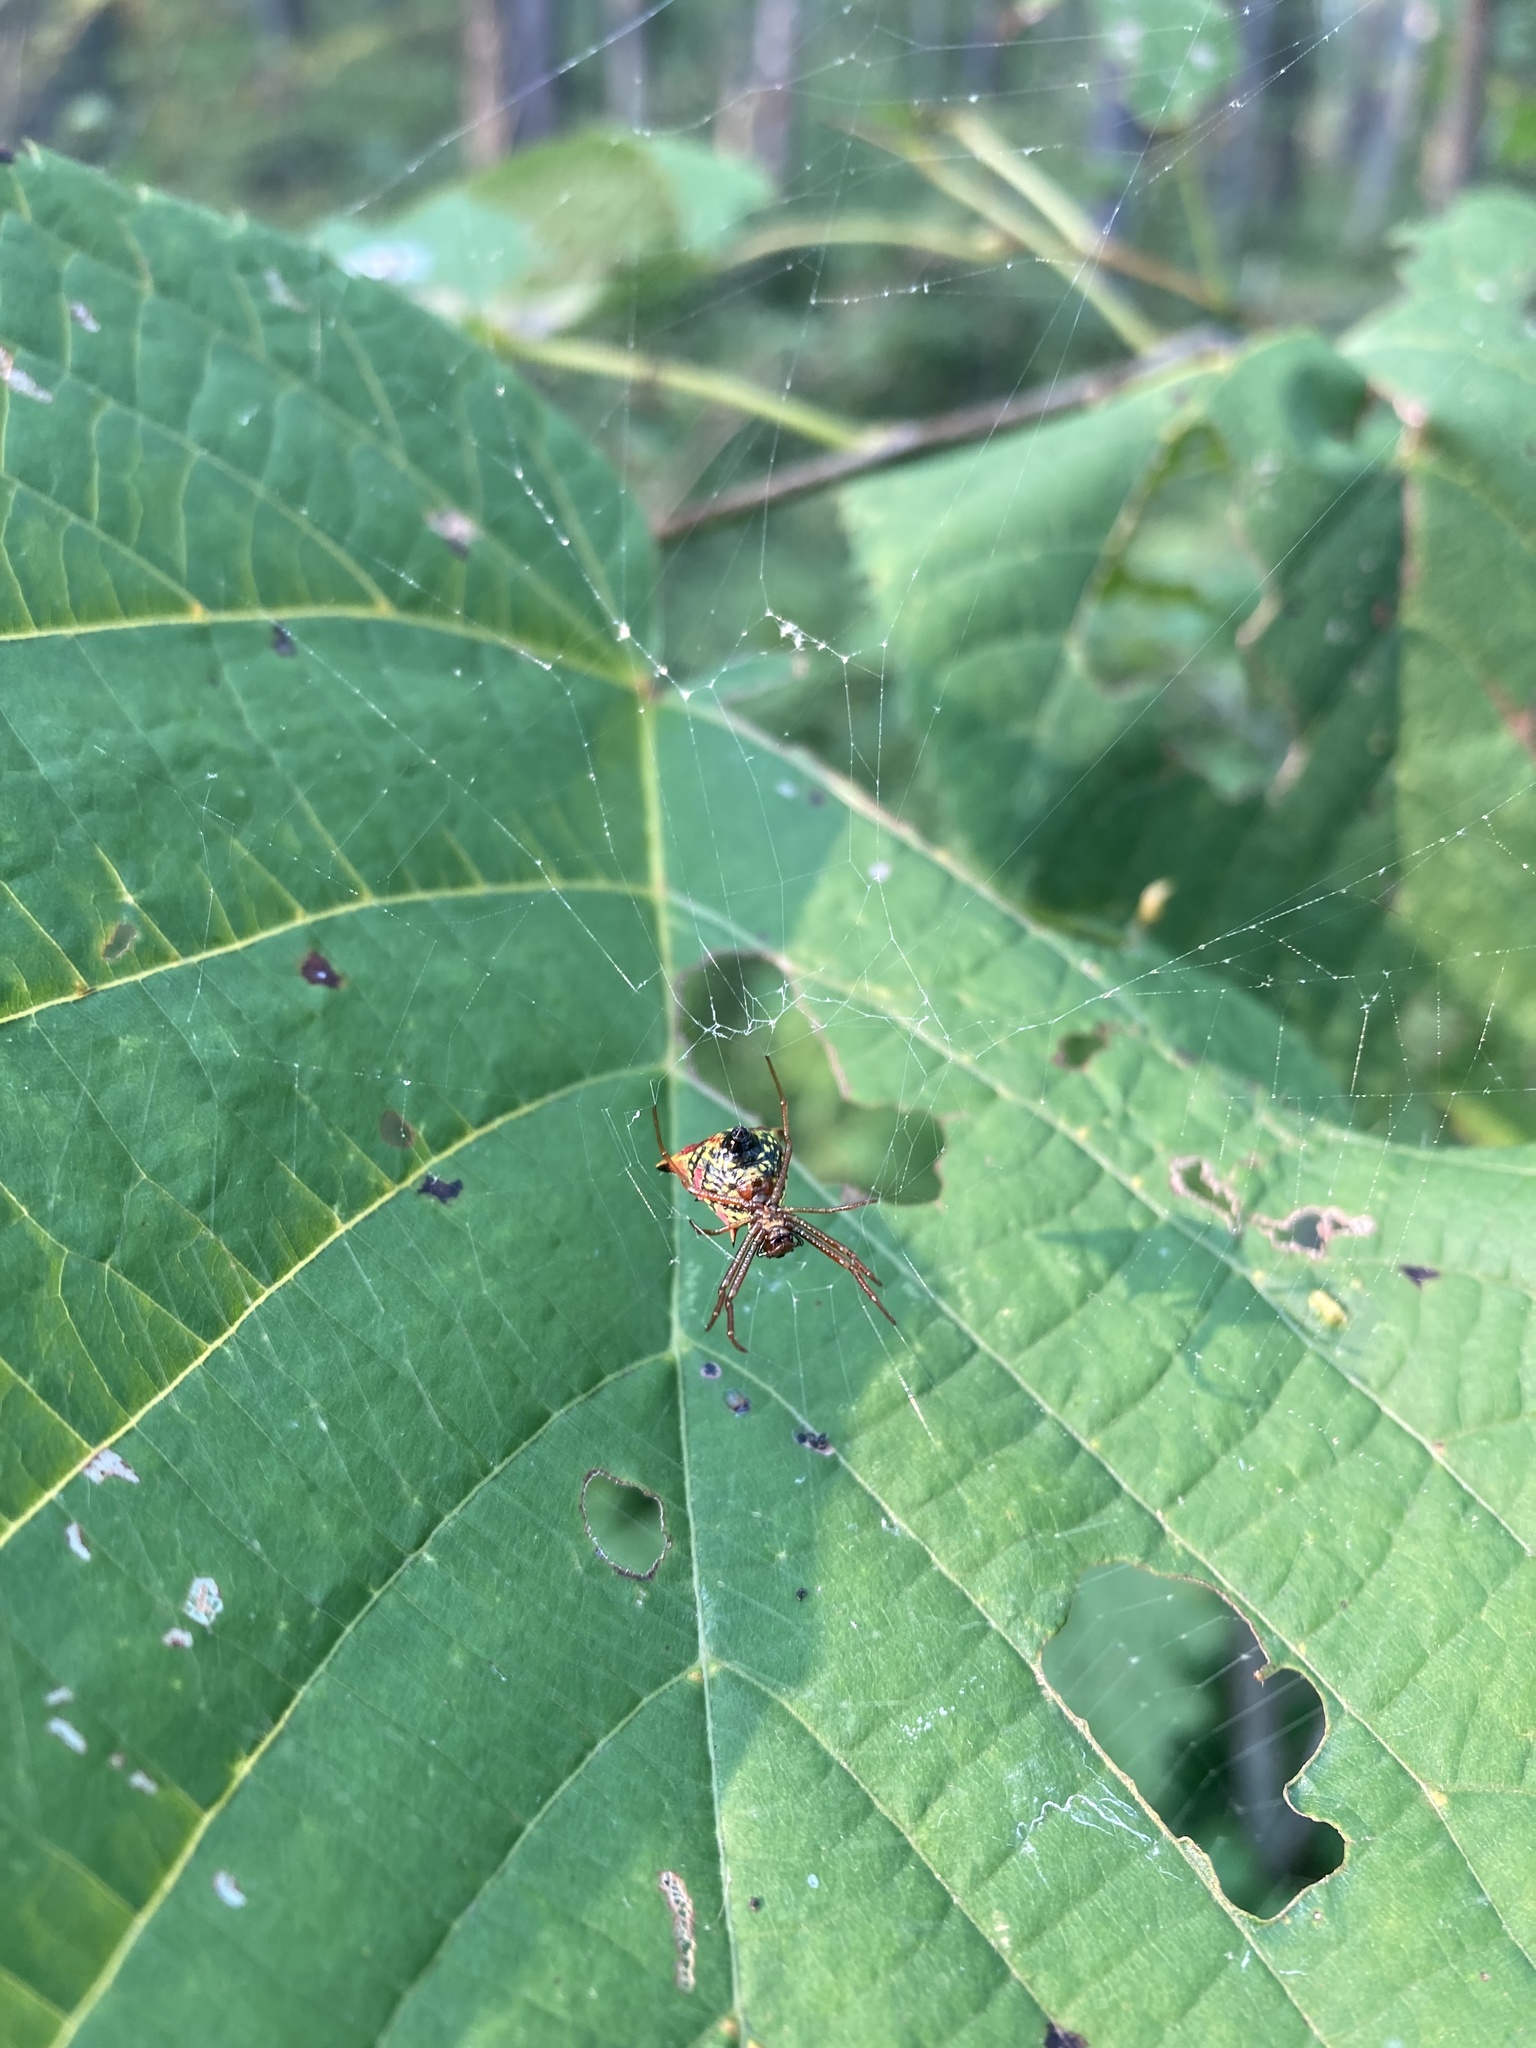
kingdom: Animalia
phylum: Arthropoda
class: Arachnida
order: Araneae
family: Araneidae
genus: Micrathena
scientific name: Micrathena sagittata
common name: Orb weavers
